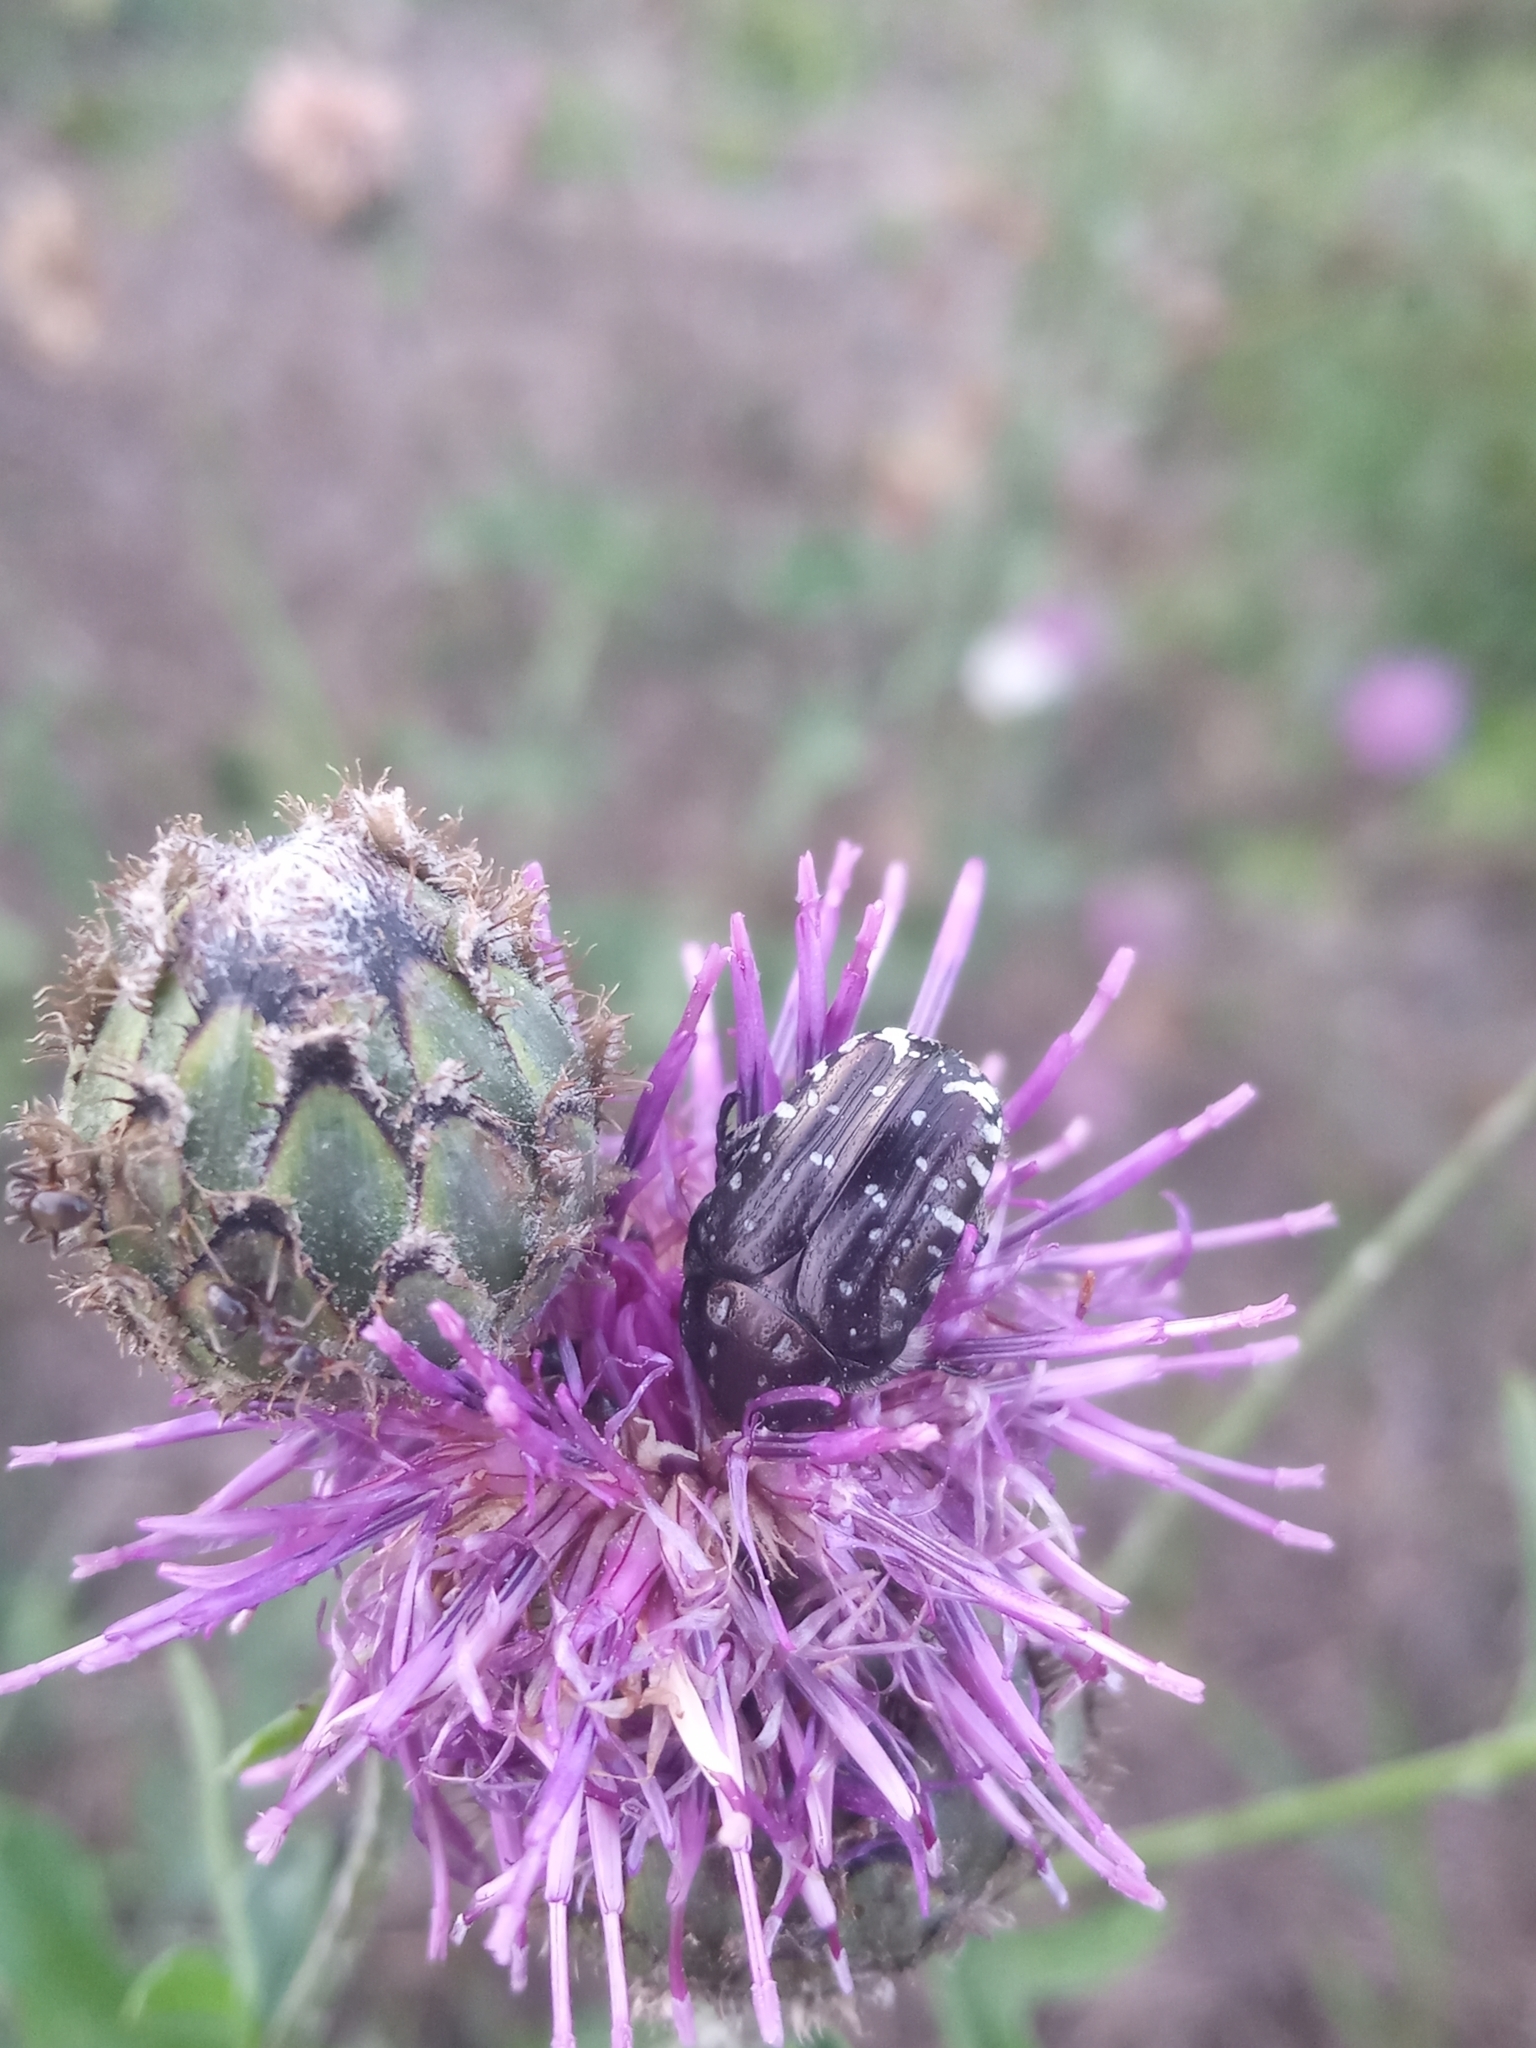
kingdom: Animalia
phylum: Arthropoda
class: Insecta
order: Coleoptera
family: Scarabaeidae
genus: Oxythyrea
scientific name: Oxythyrea funesta
